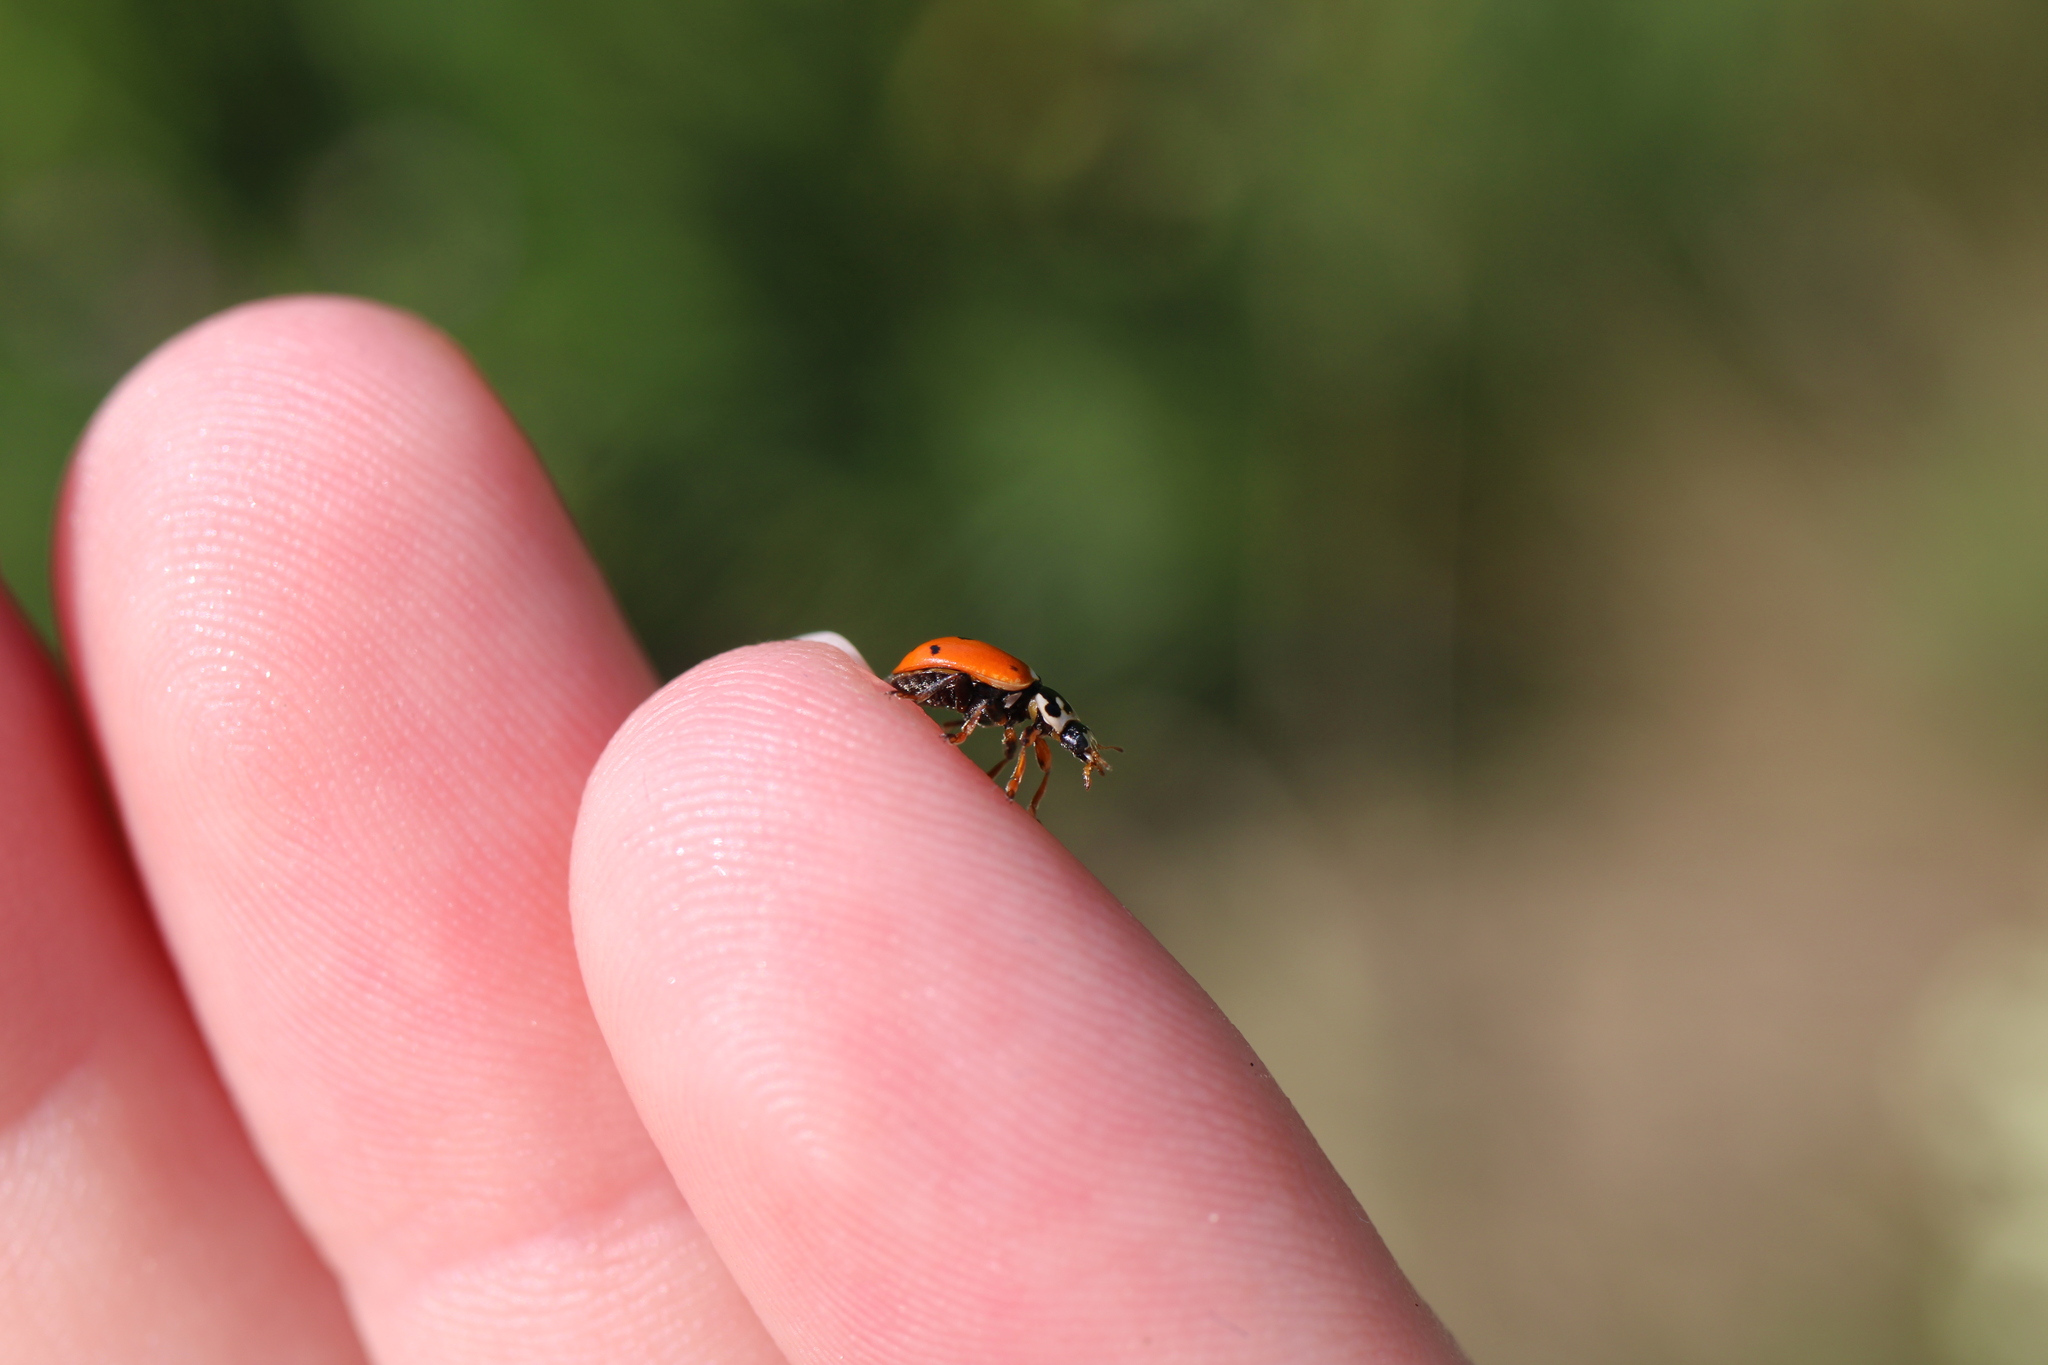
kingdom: Animalia
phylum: Arthropoda
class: Insecta
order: Coleoptera
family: Coccinellidae
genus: Hippodamia
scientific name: Hippodamia variegata
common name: Ladybird beetle
